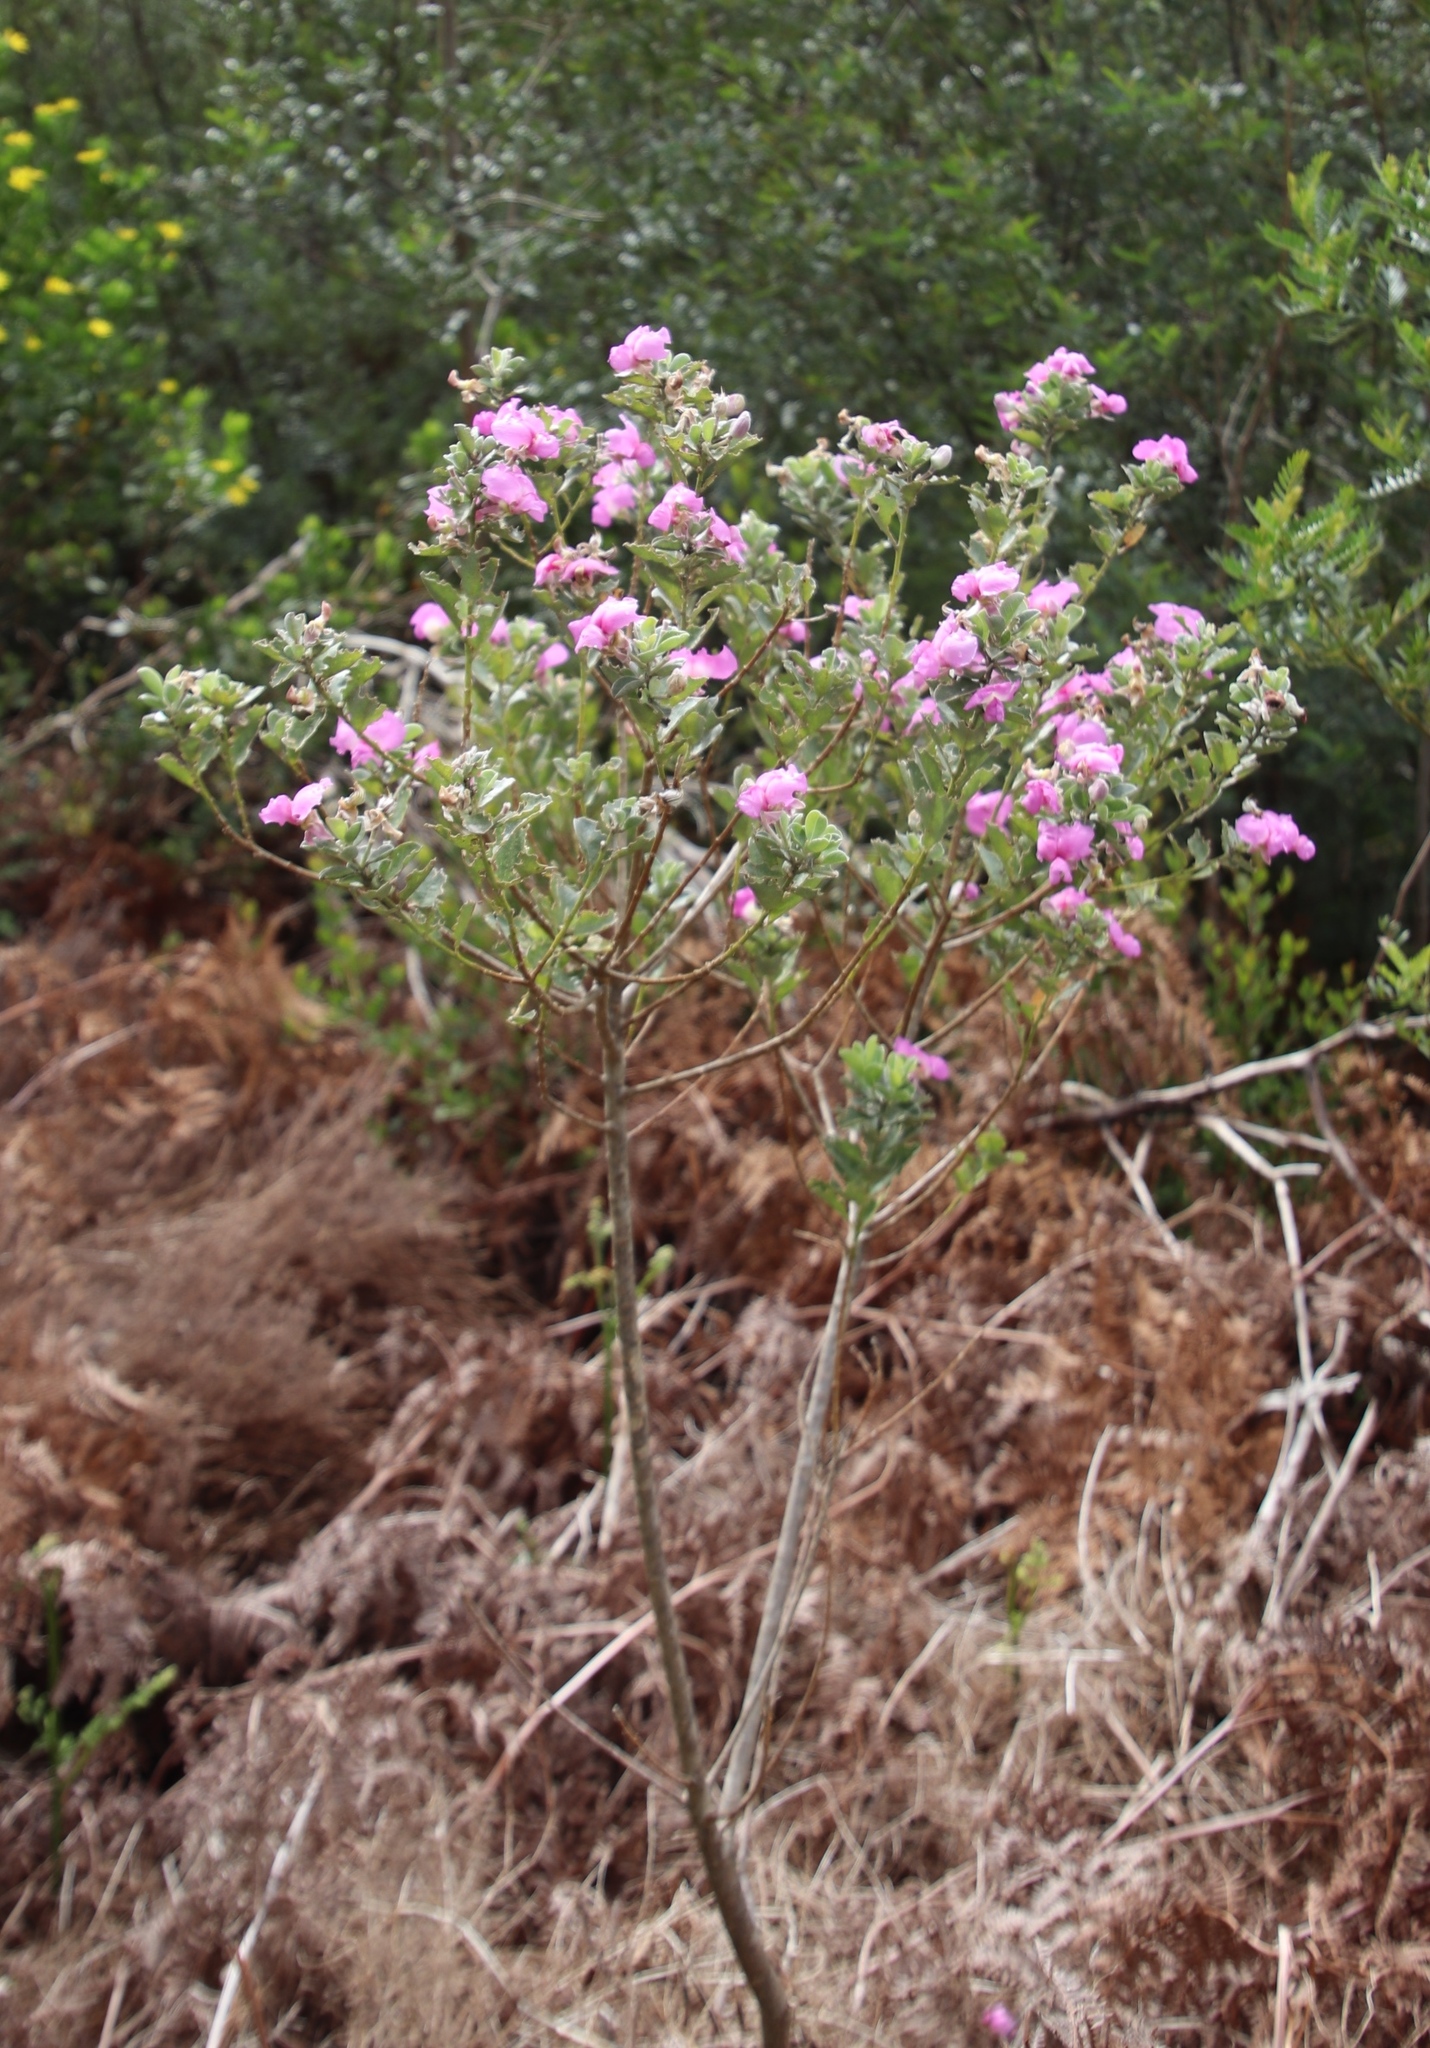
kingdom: Plantae
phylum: Tracheophyta
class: Magnoliopsida
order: Fabales
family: Fabaceae
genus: Podalyria
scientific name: Podalyria calyptrata
